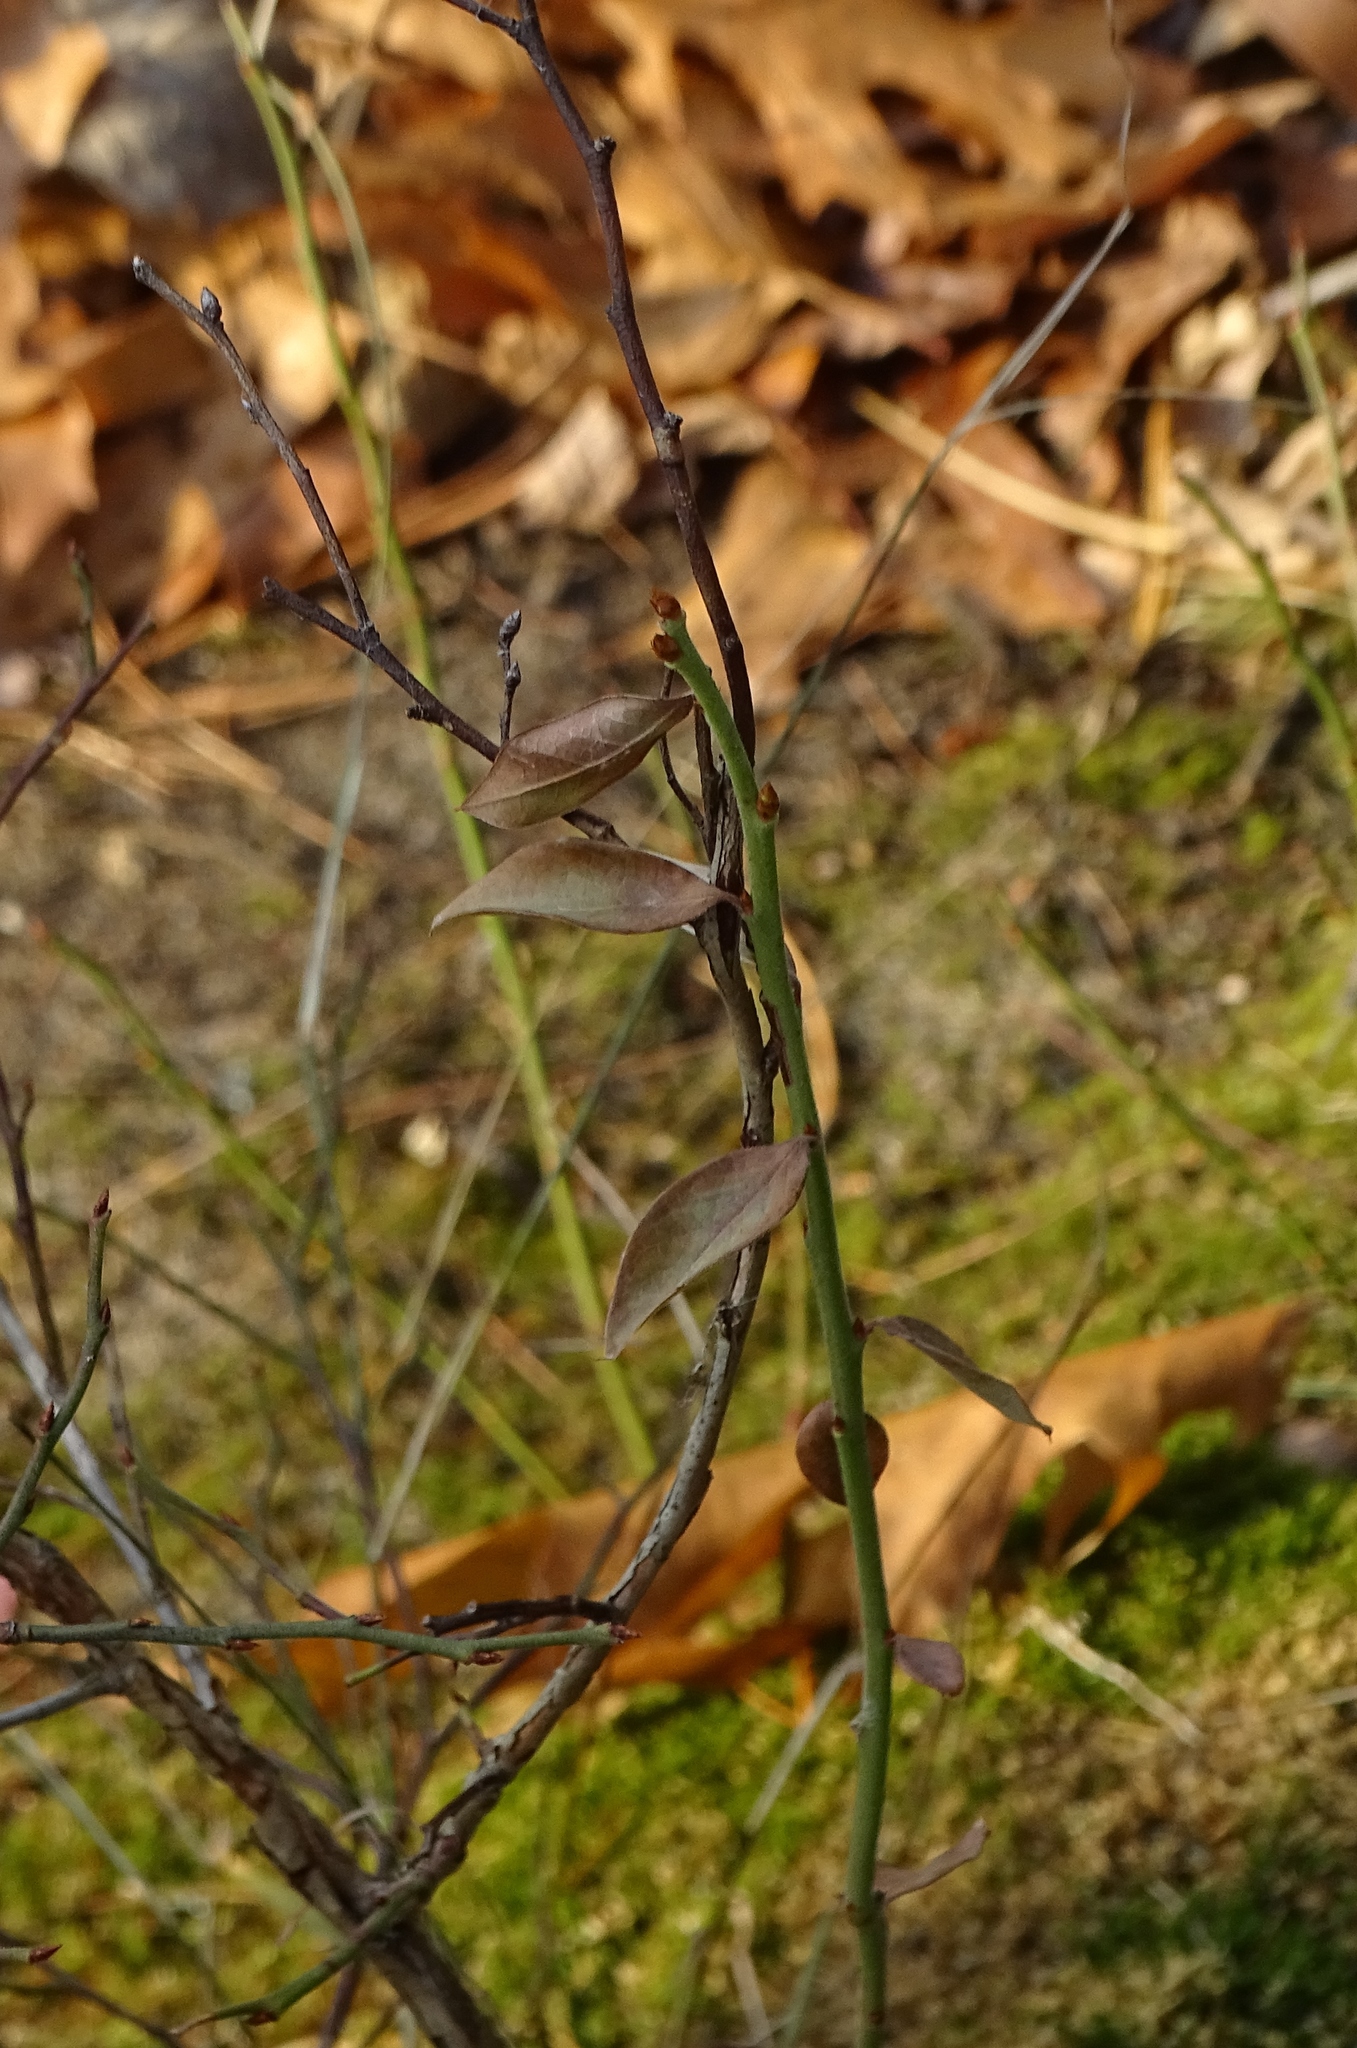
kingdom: Plantae
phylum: Tracheophyta
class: Magnoliopsida
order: Ericales
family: Ericaceae
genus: Vaccinium
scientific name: Vaccinium angustifolium
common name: Early lowbush blueberry
